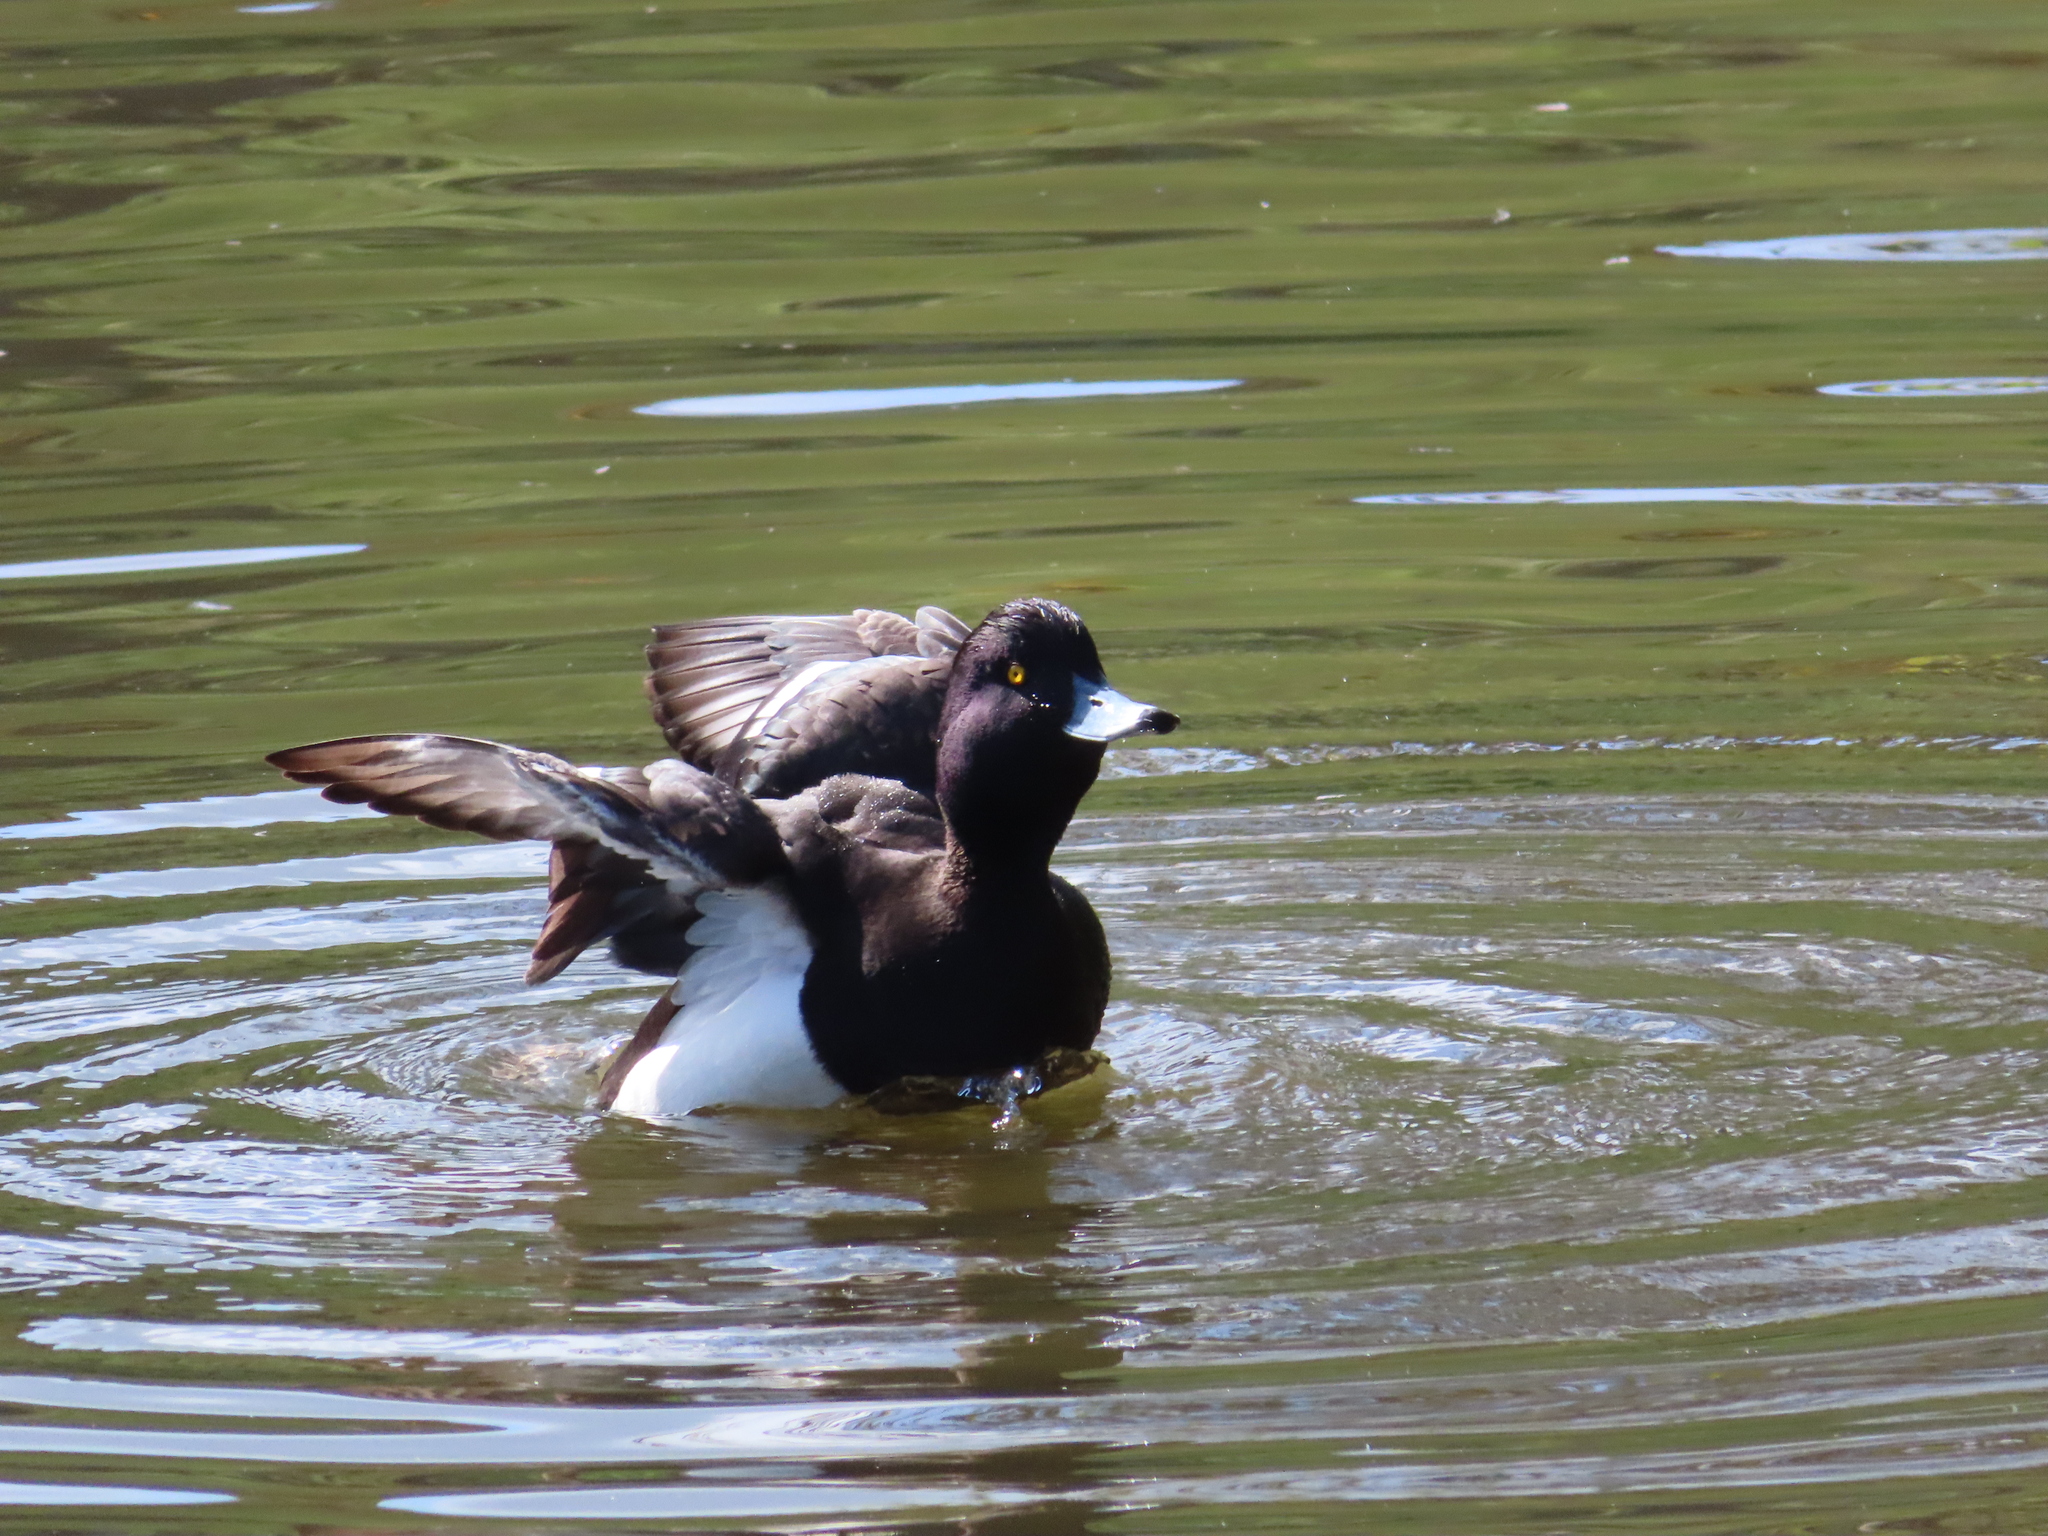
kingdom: Animalia
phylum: Chordata
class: Aves
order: Anseriformes
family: Anatidae
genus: Aythya
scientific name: Aythya fuligula
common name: Tufted duck
